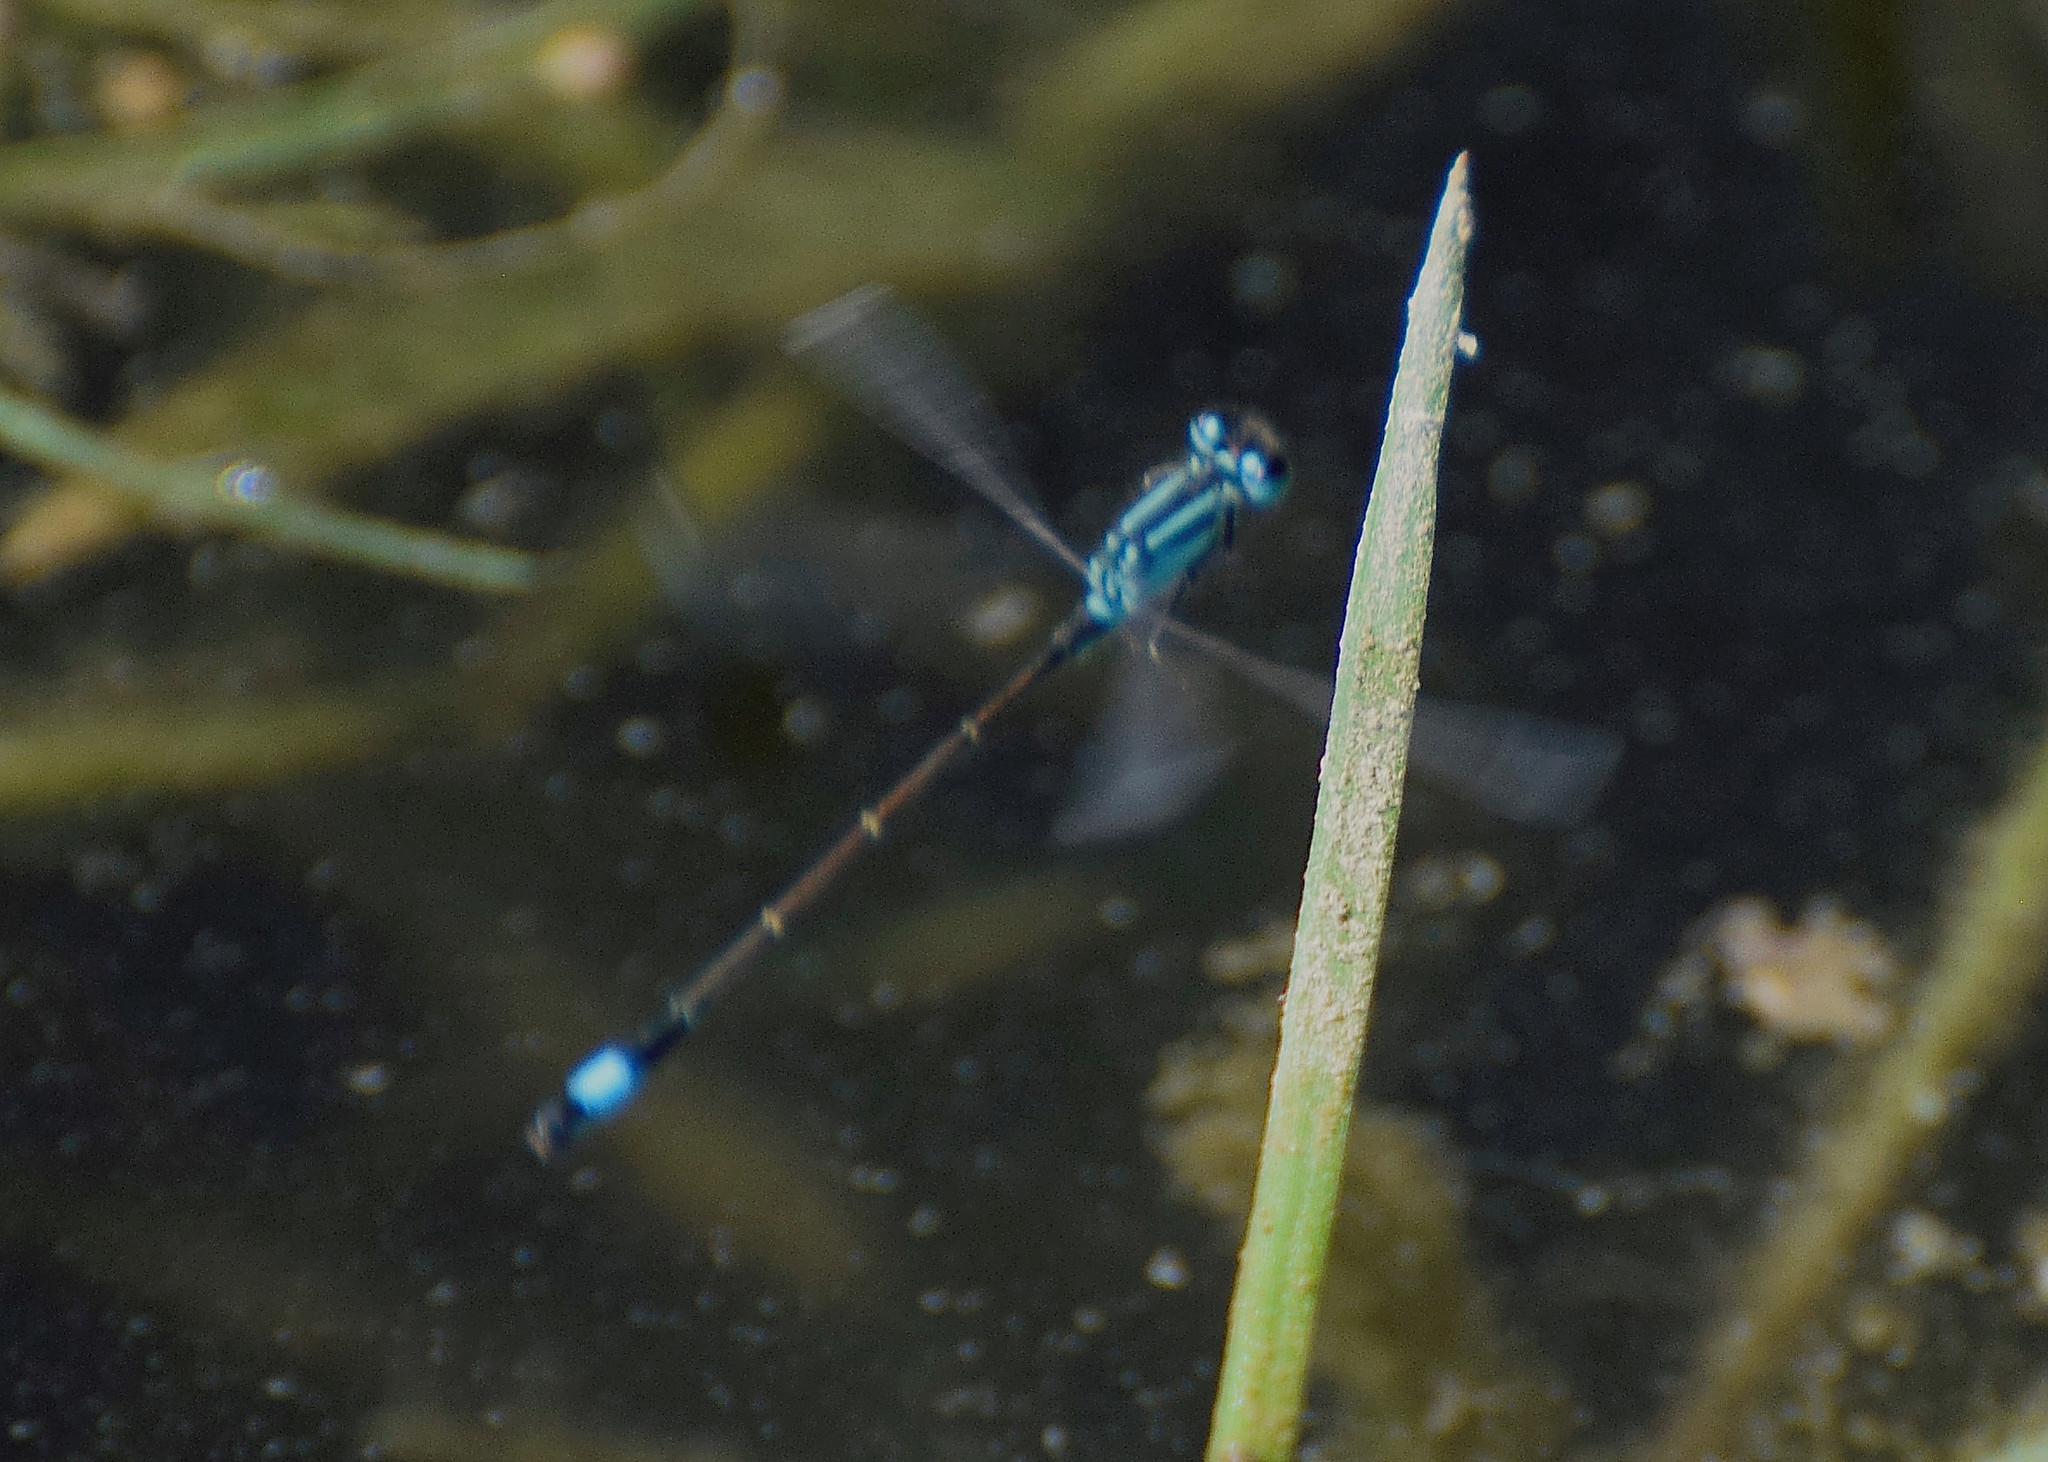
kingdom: Animalia
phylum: Arthropoda
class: Insecta
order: Odonata
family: Coenagrionidae
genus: Ischnura
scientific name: Ischnura elegans
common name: Blue-tailed damselfly
